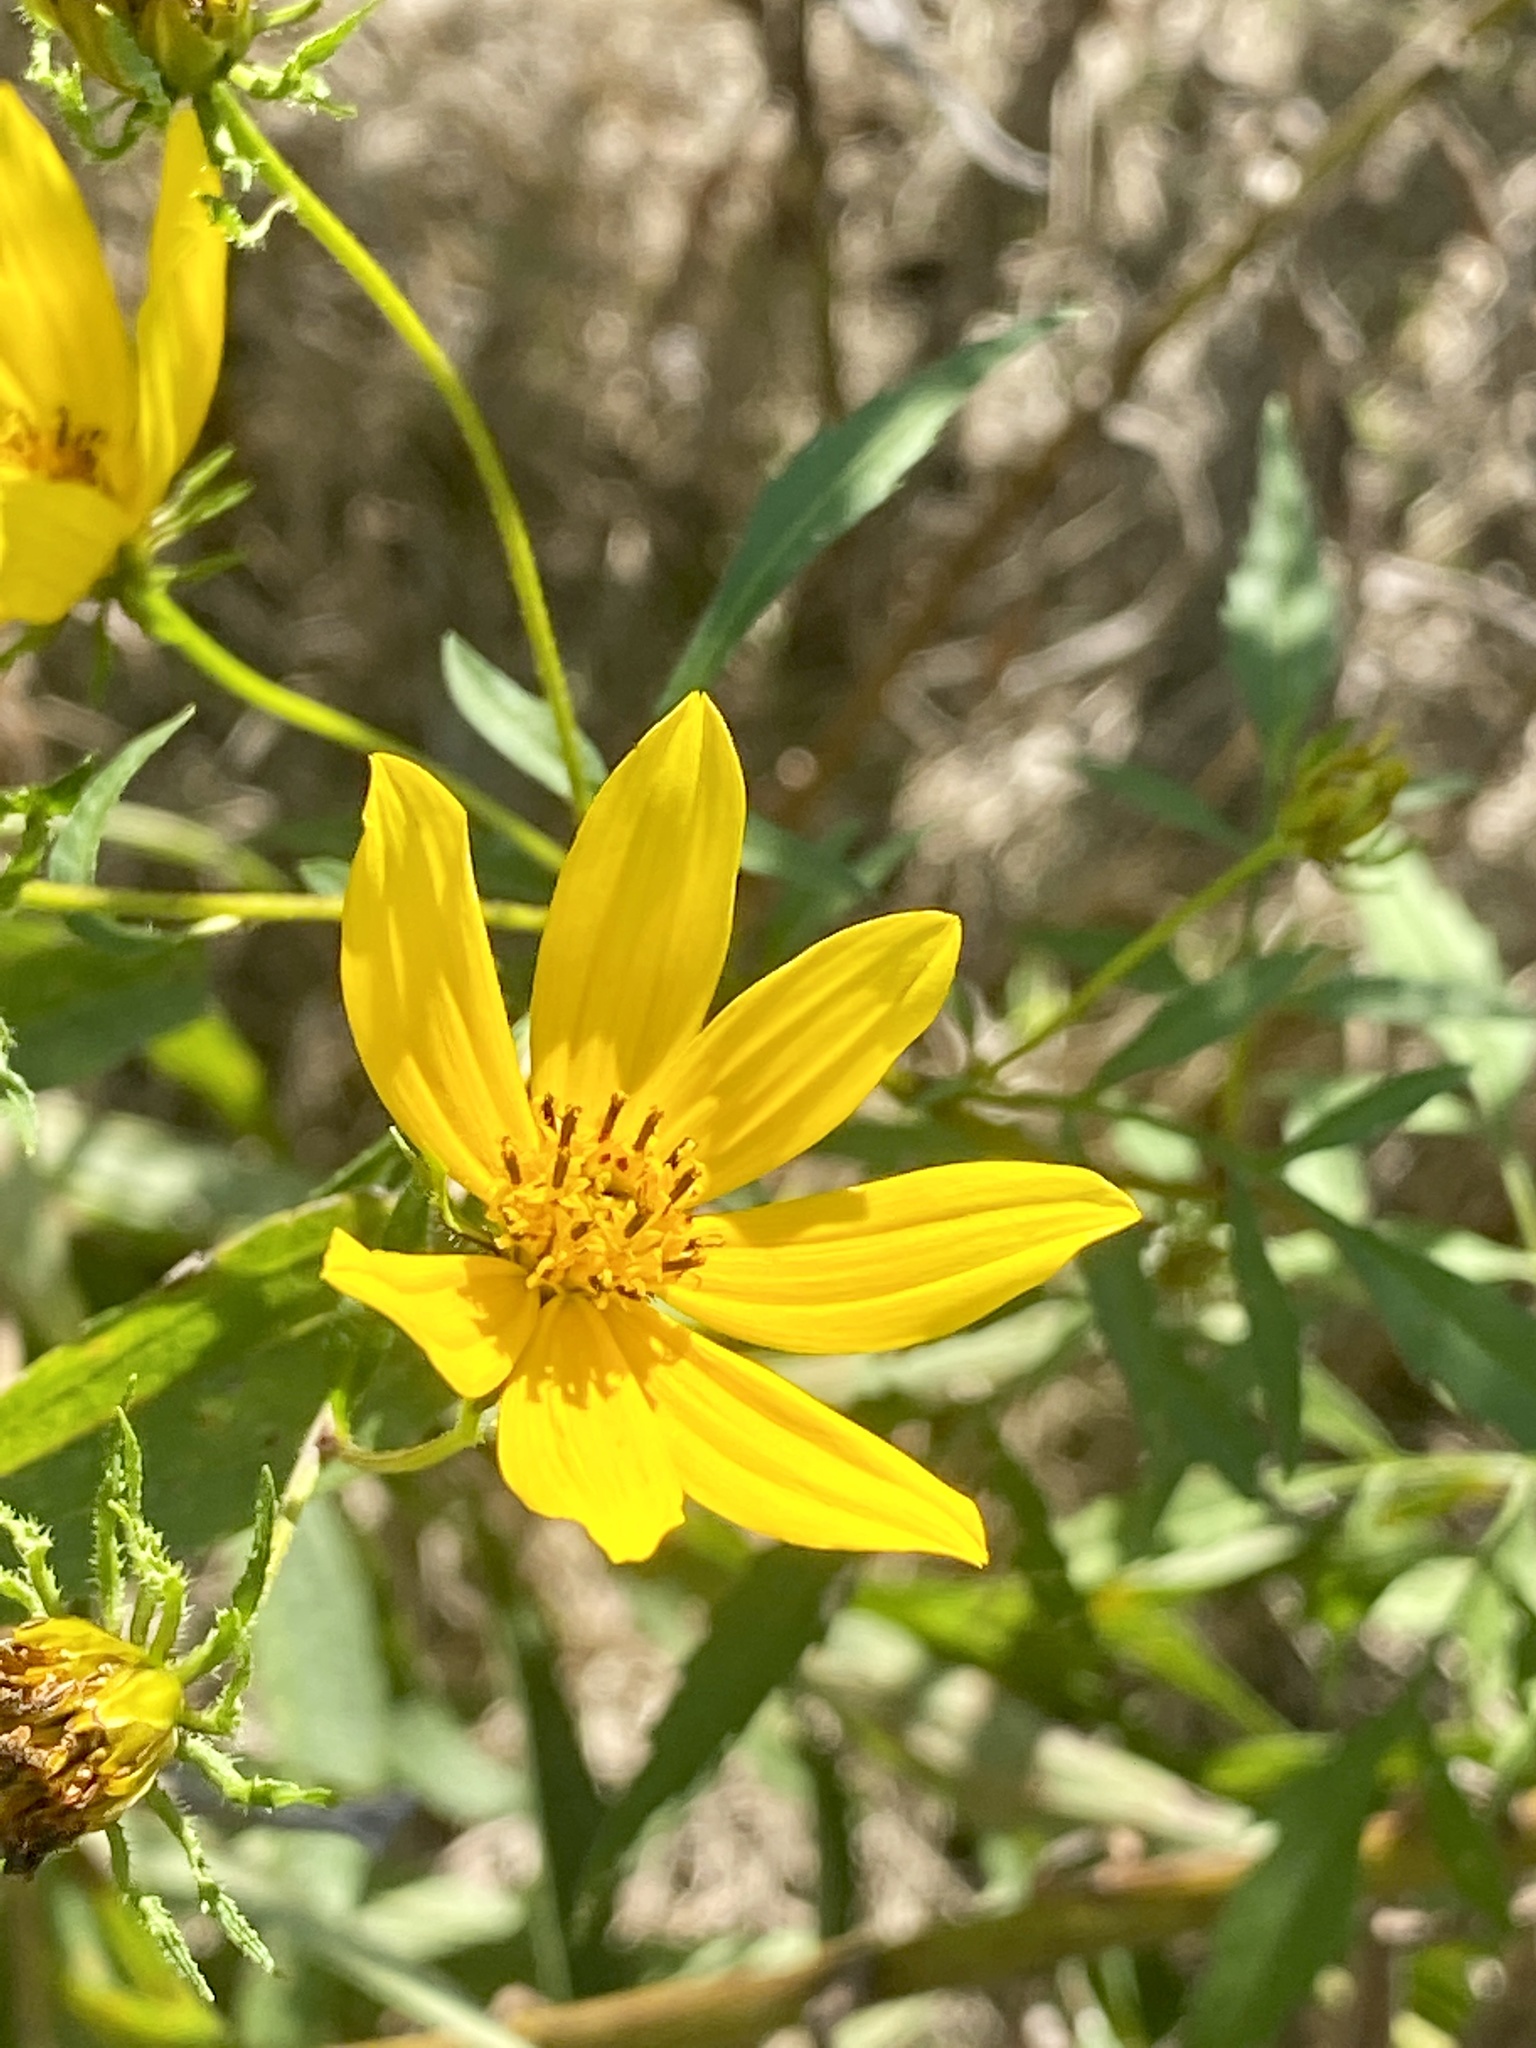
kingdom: Plantae
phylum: Tracheophyta
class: Magnoliopsida
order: Asterales
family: Asteraceae
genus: Bidens
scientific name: Bidens polylepis
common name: Awnless beggarticks
